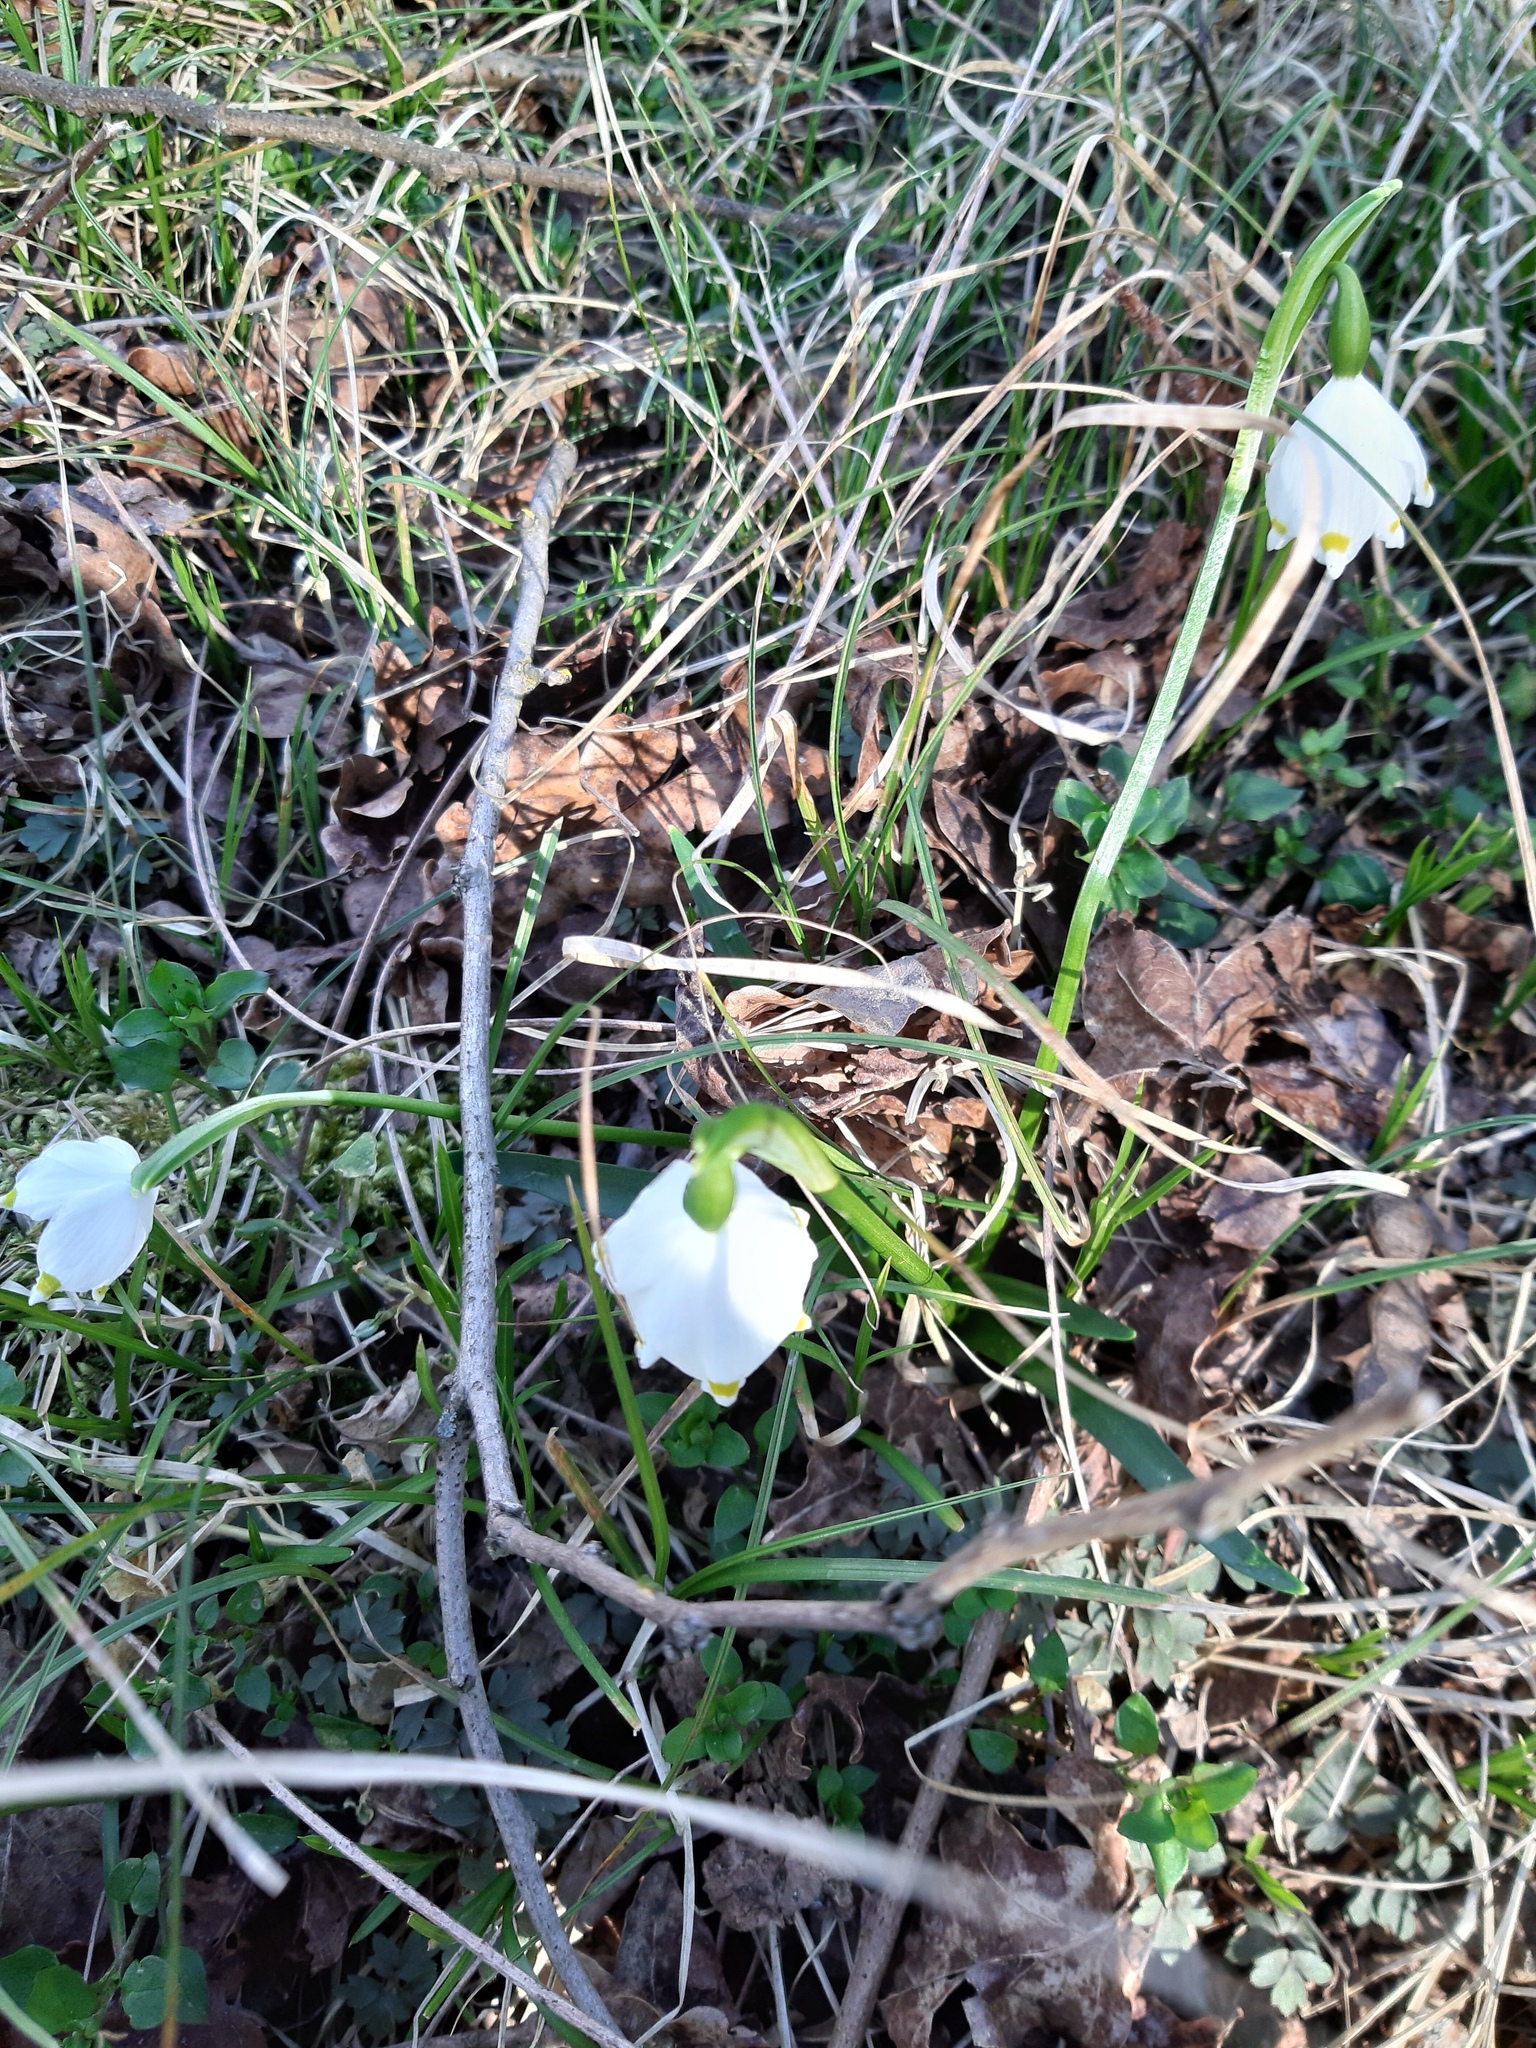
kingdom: Plantae
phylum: Tracheophyta
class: Liliopsida
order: Asparagales
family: Amaryllidaceae
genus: Leucojum
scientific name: Leucojum vernum
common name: Spring snowflake
